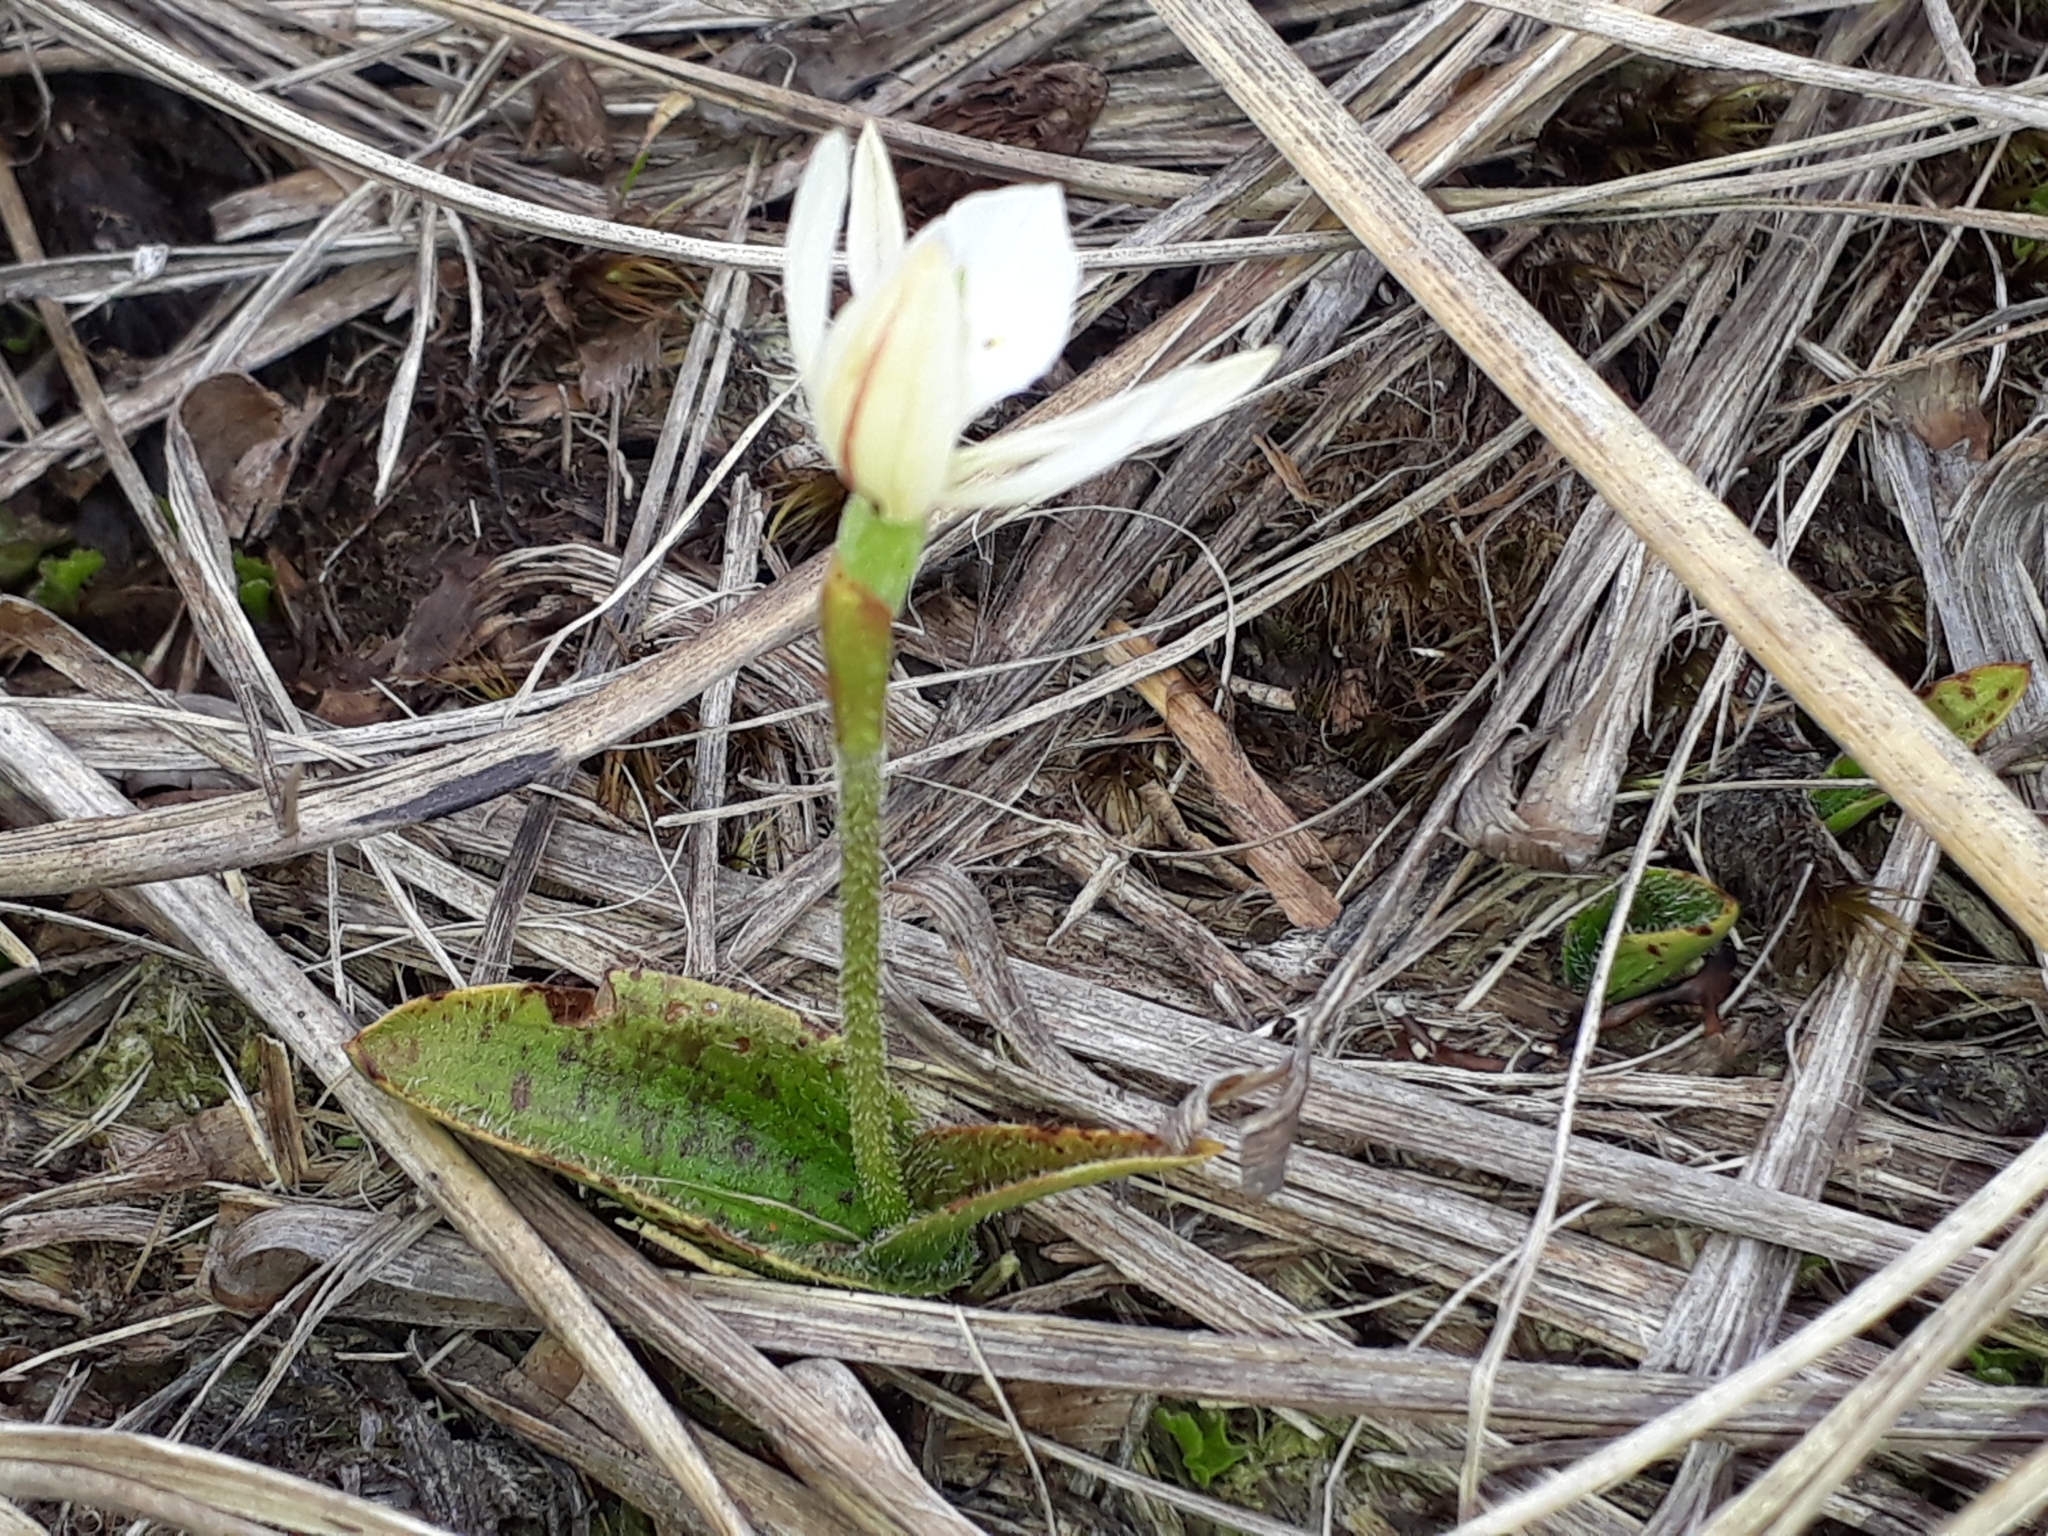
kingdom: Plantae
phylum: Tracheophyta
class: Liliopsida
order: Asparagales
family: Orchidaceae
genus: Aporostylis
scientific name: Aporostylis bifolia
